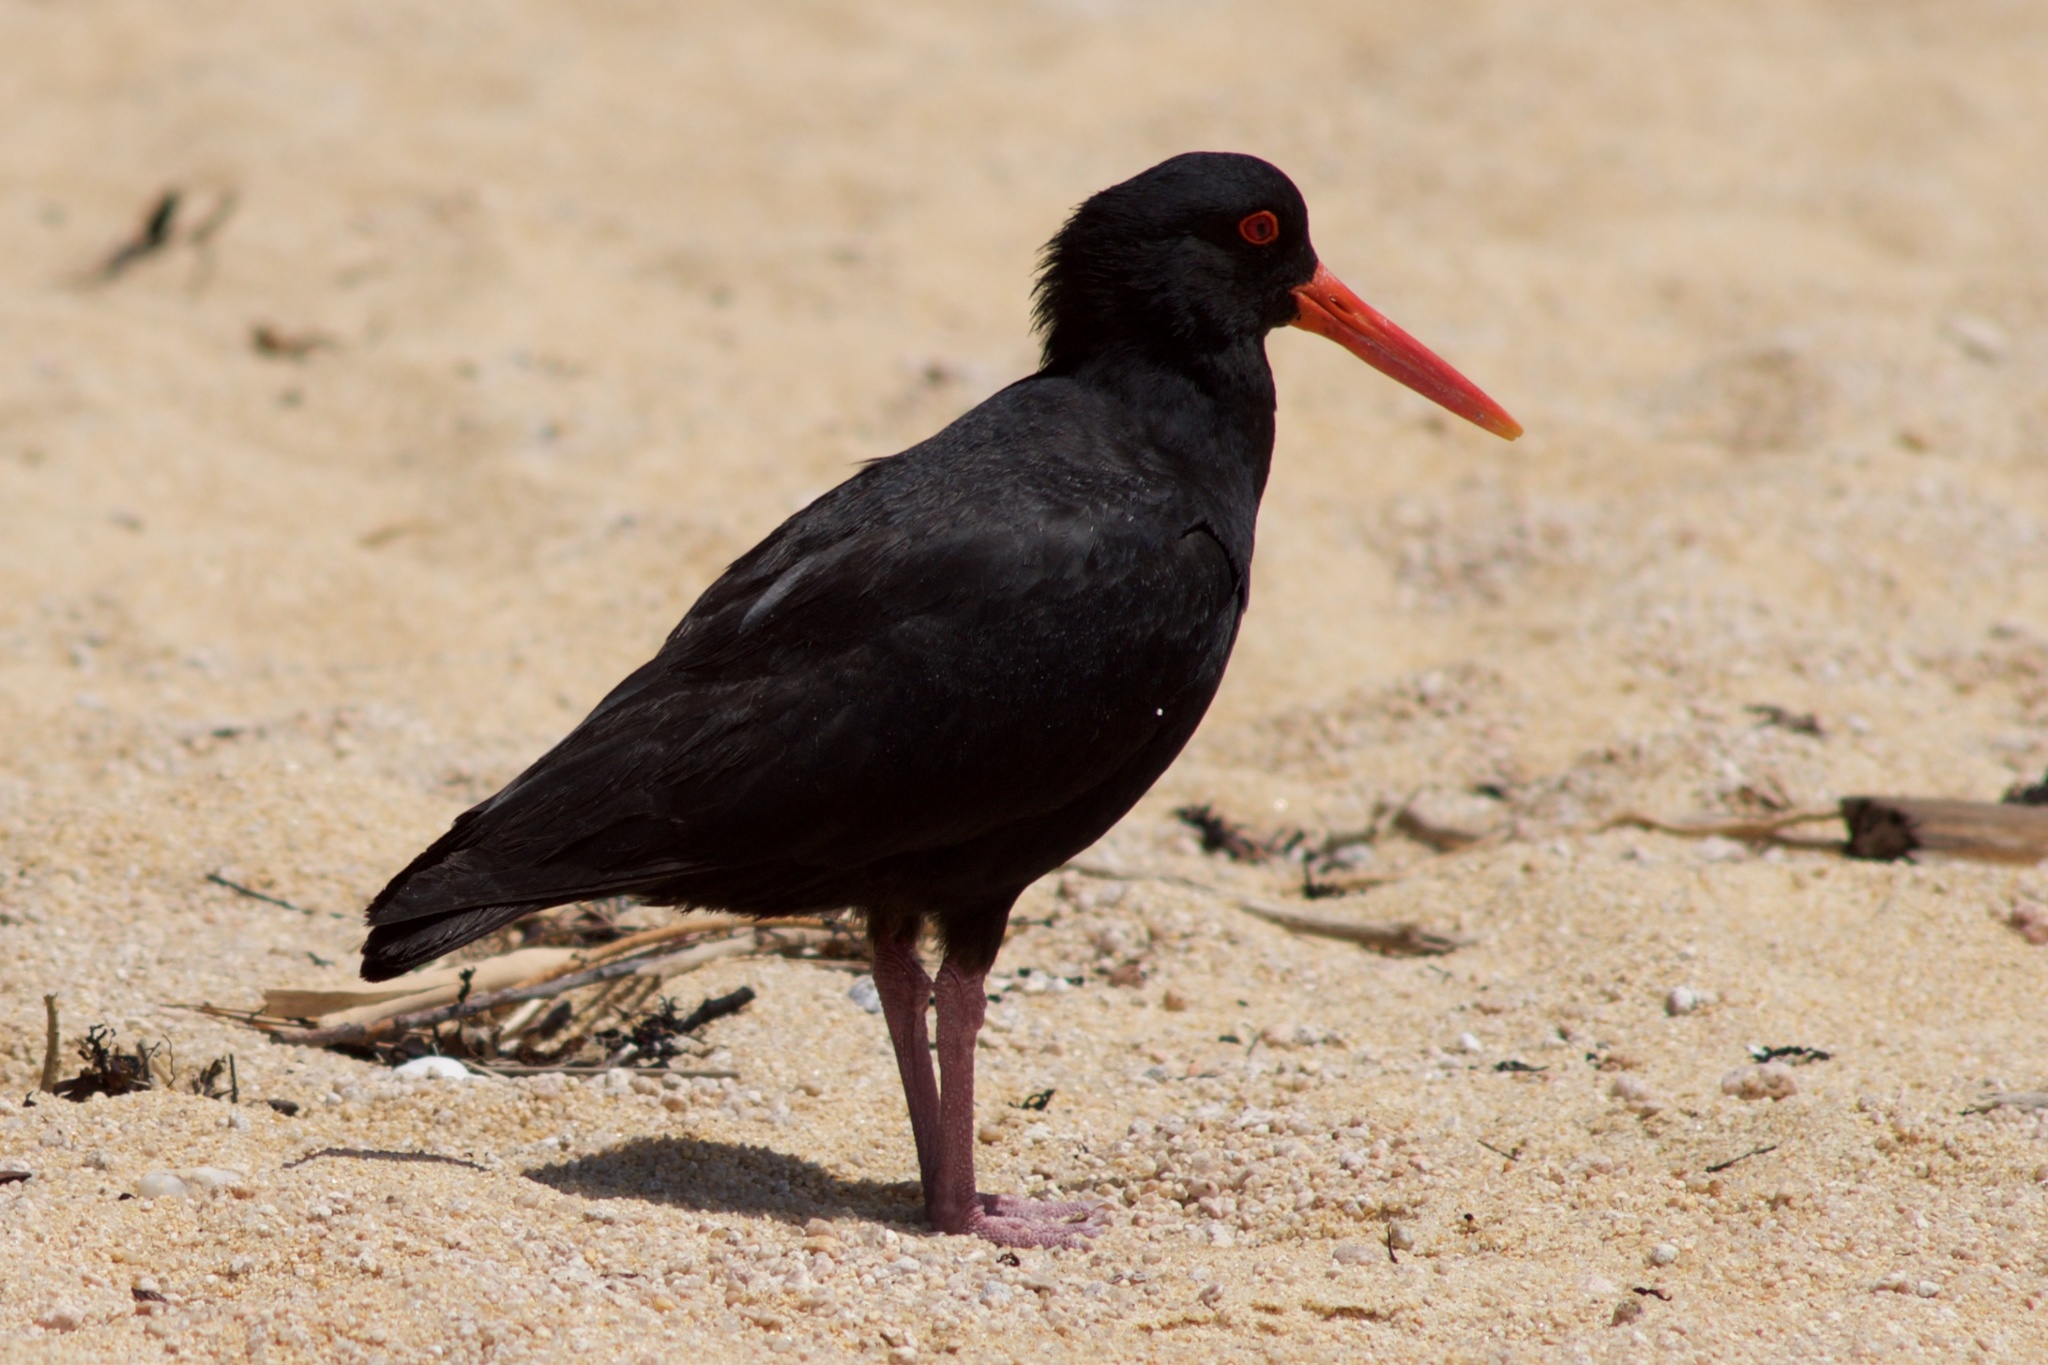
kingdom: Animalia
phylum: Chordata
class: Aves
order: Charadriiformes
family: Haematopodidae
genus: Haematopus
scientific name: Haematopus unicolor
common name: Variable oystercatcher
